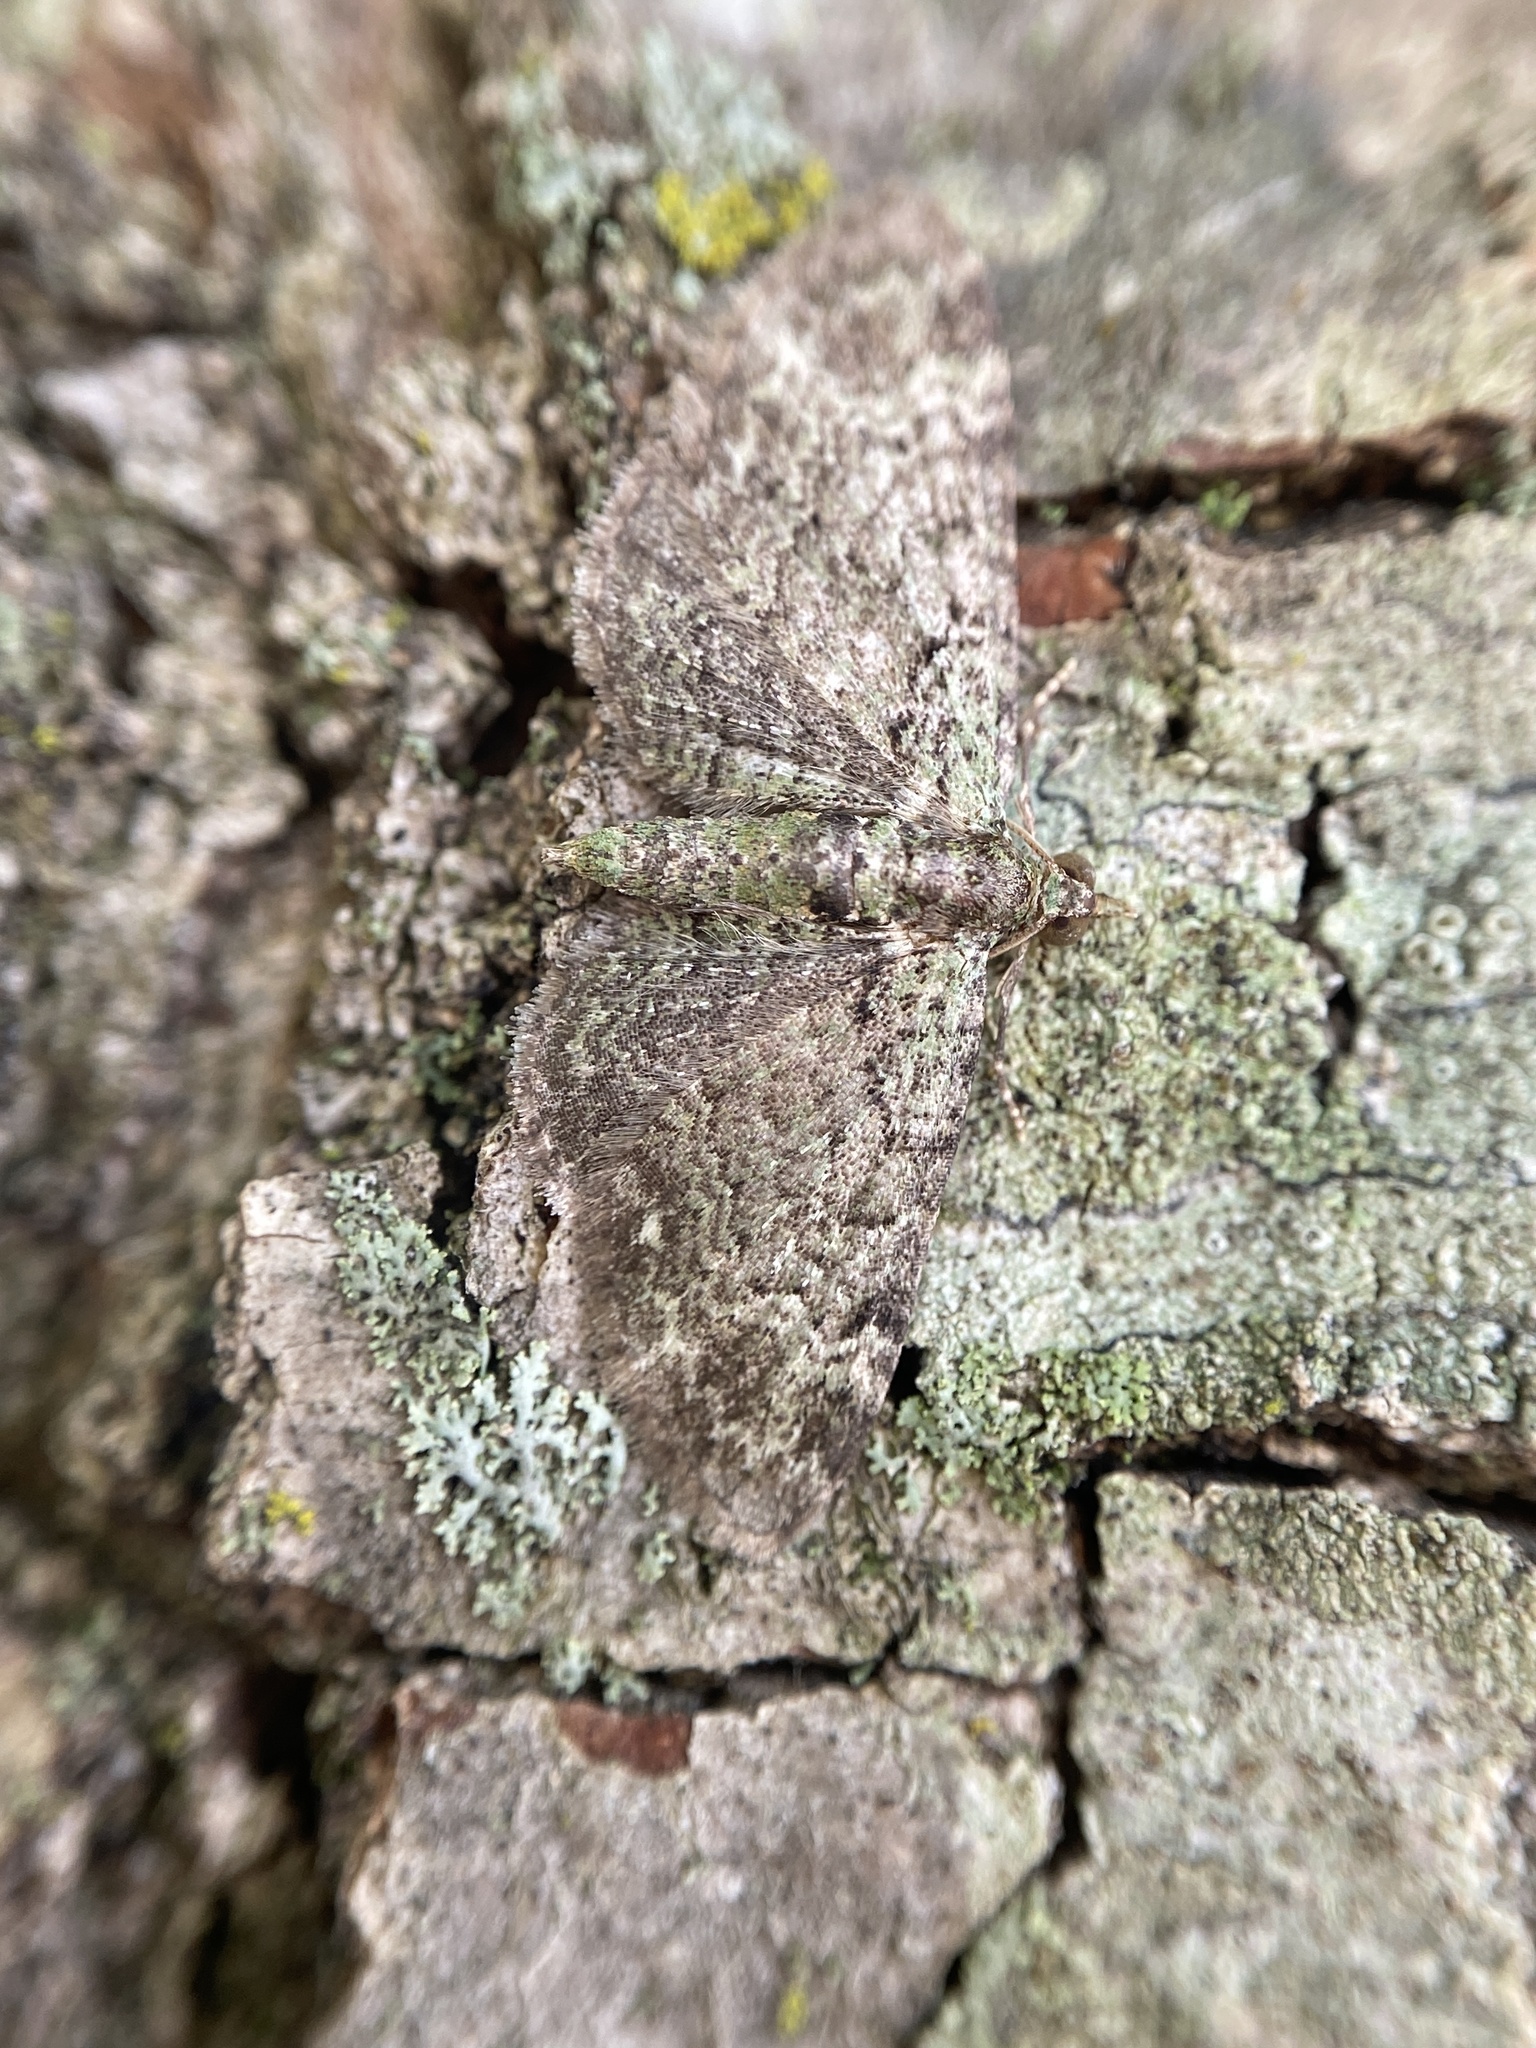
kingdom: Animalia
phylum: Arthropoda
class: Insecta
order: Lepidoptera
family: Geometridae
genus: Pasiphila
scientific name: Pasiphila rectangulata
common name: Green pug
